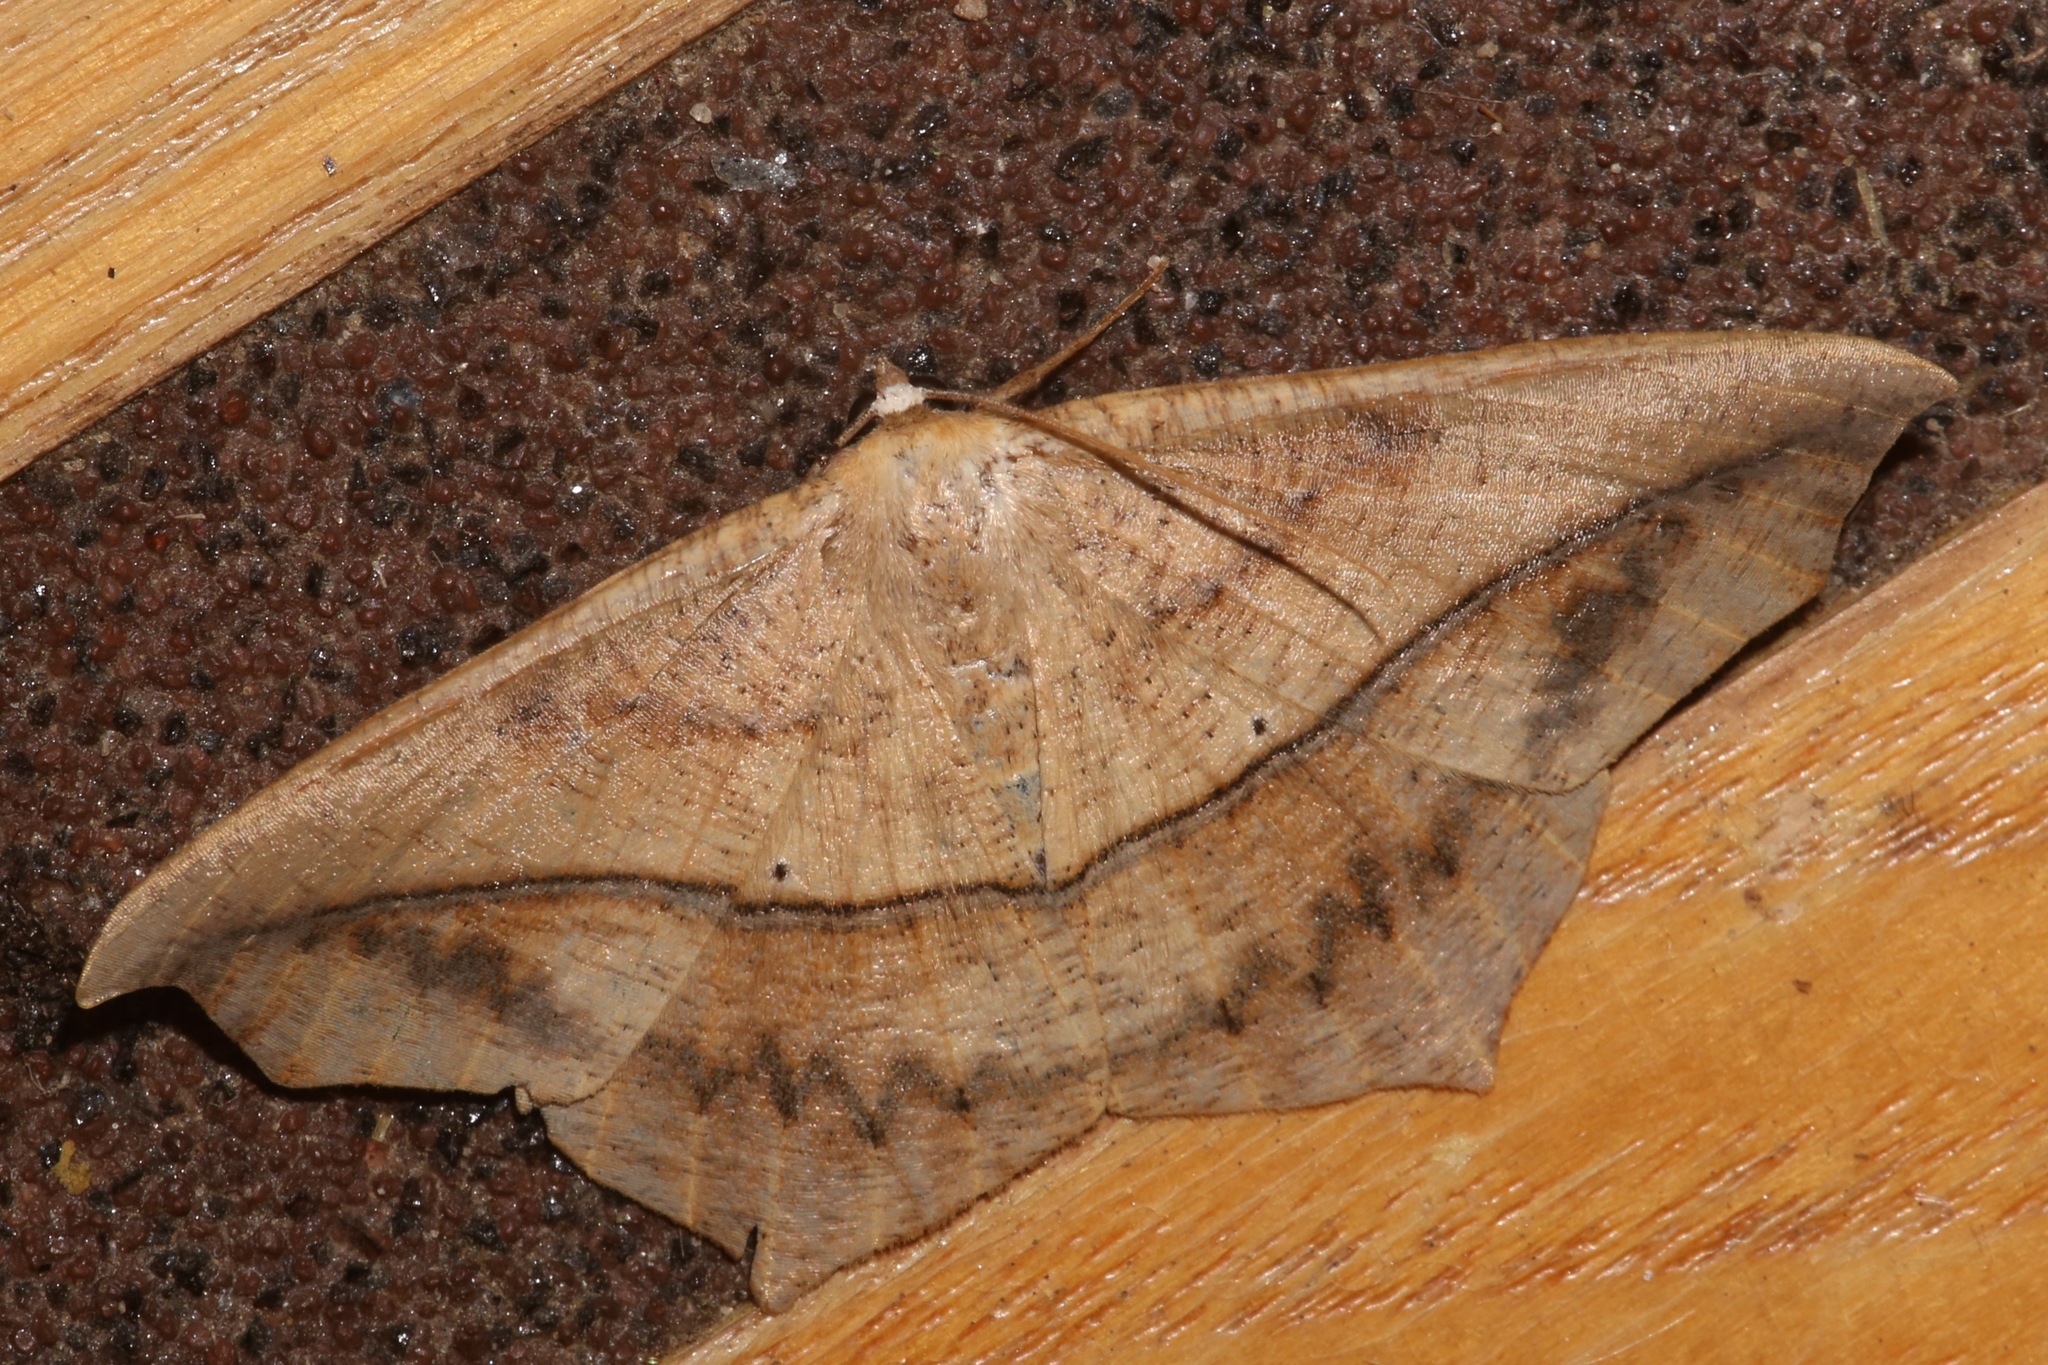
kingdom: Animalia
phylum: Arthropoda
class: Insecta
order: Lepidoptera
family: Geometridae
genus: Prochoerodes
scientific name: Prochoerodes lineola
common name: Large maple spanworm
